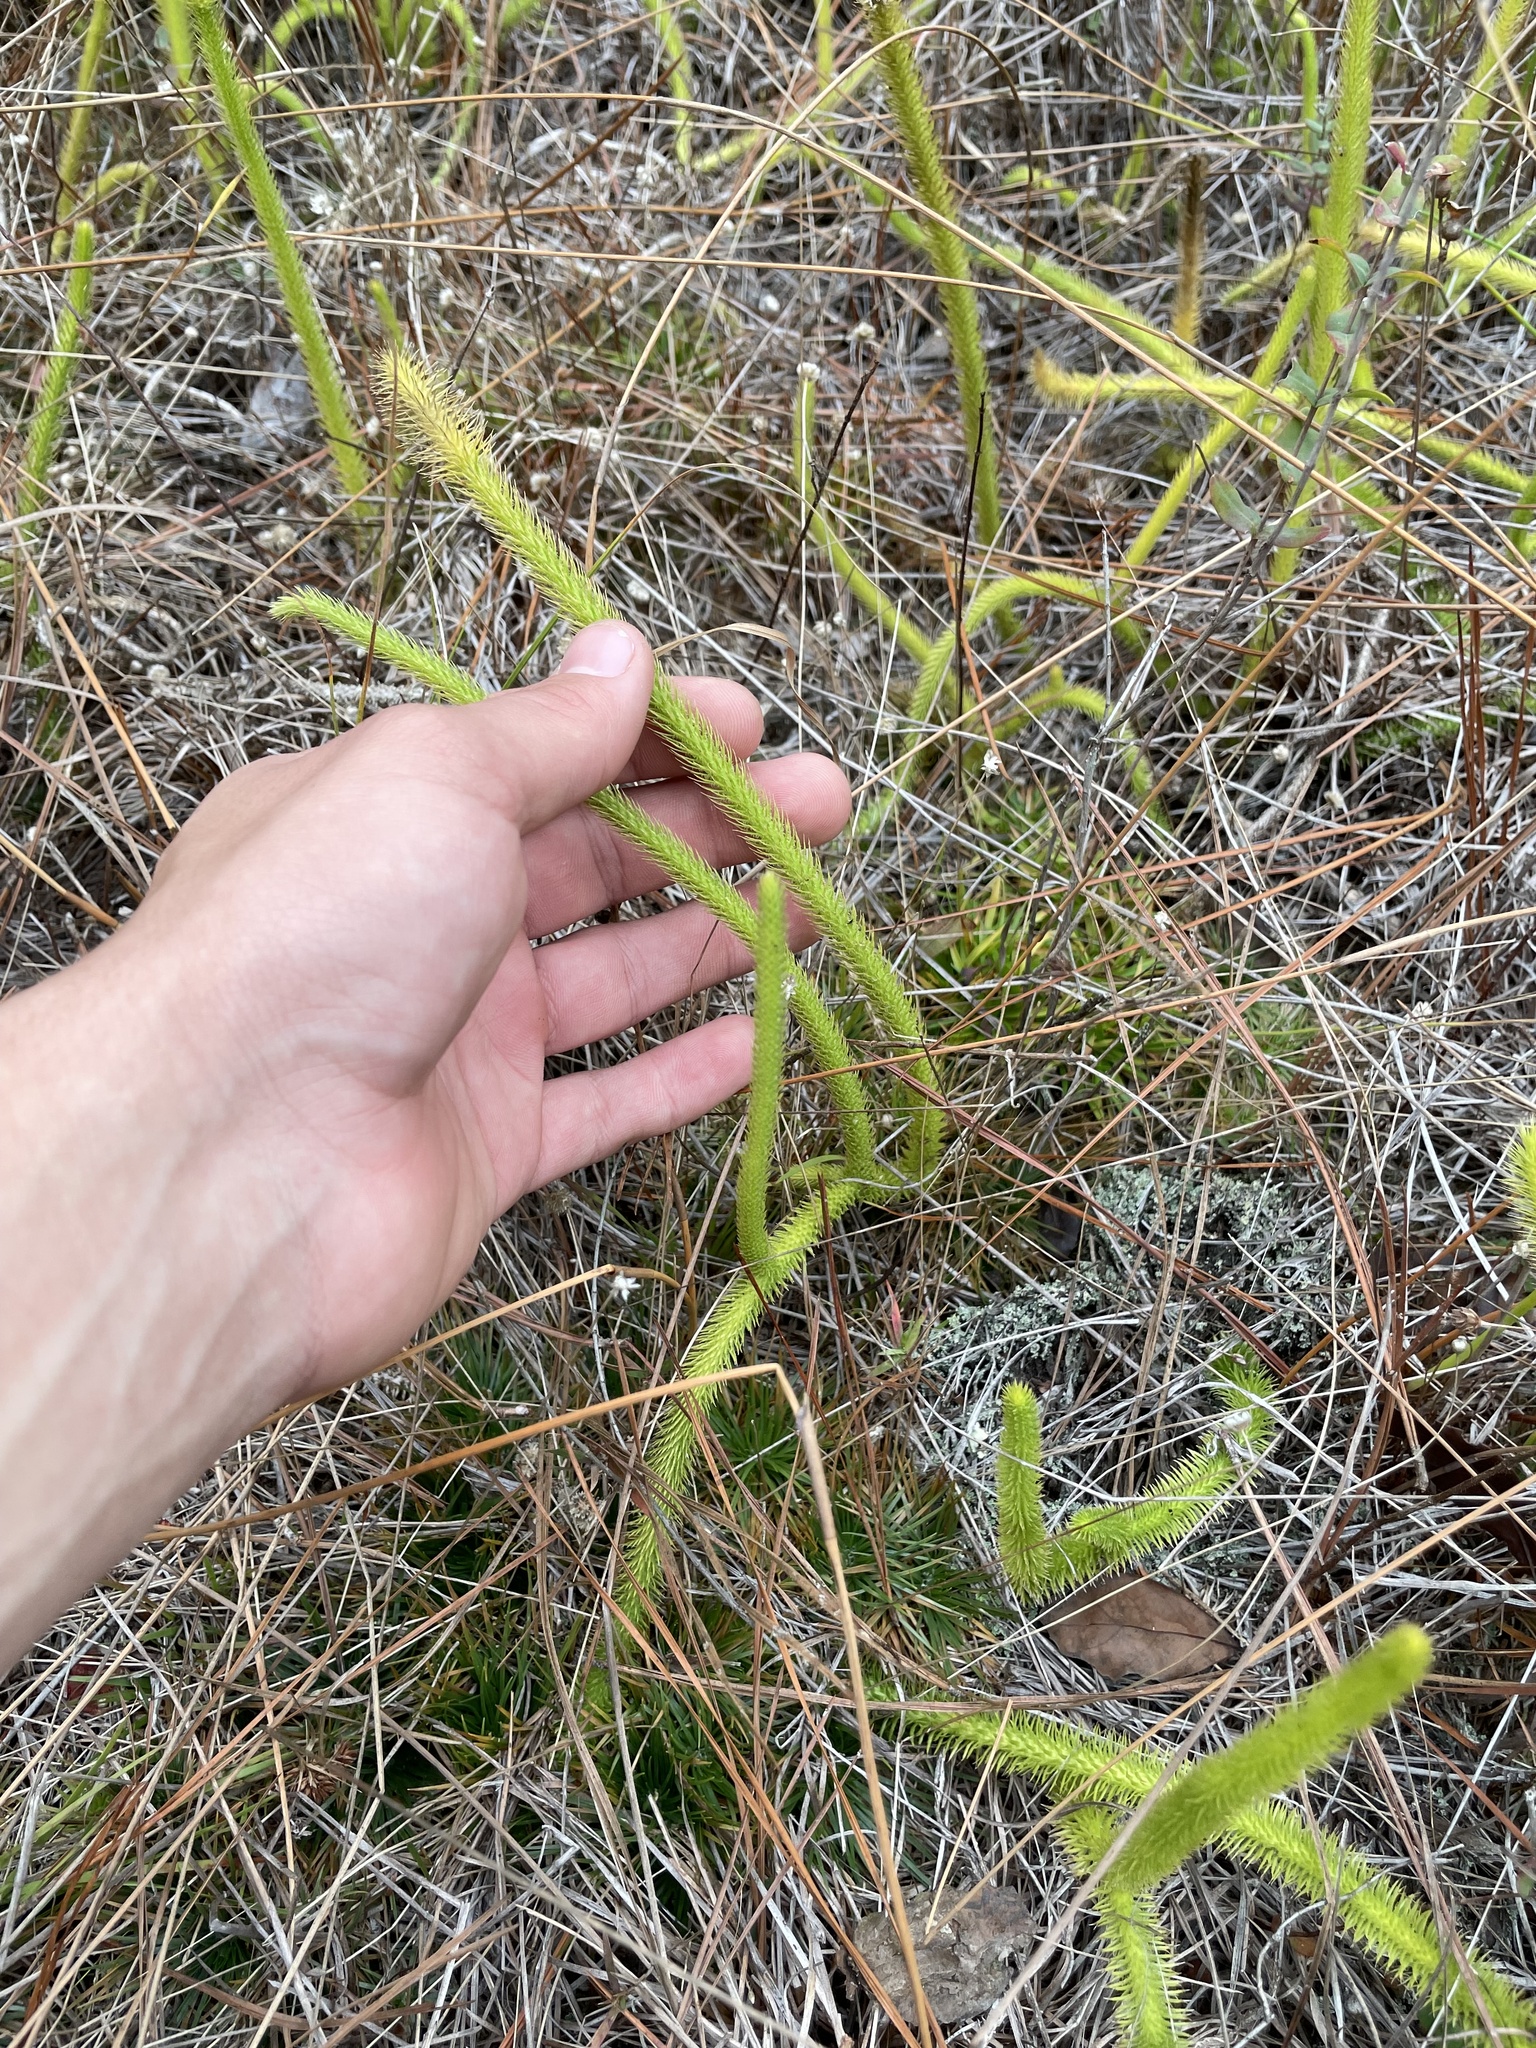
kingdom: Plantae
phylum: Tracheophyta
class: Lycopodiopsida
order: Lycopodiales
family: Lycopodiaceae
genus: Lycopodiella
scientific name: Lycopodiella alopecuroides
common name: Foxtail clubmoss
